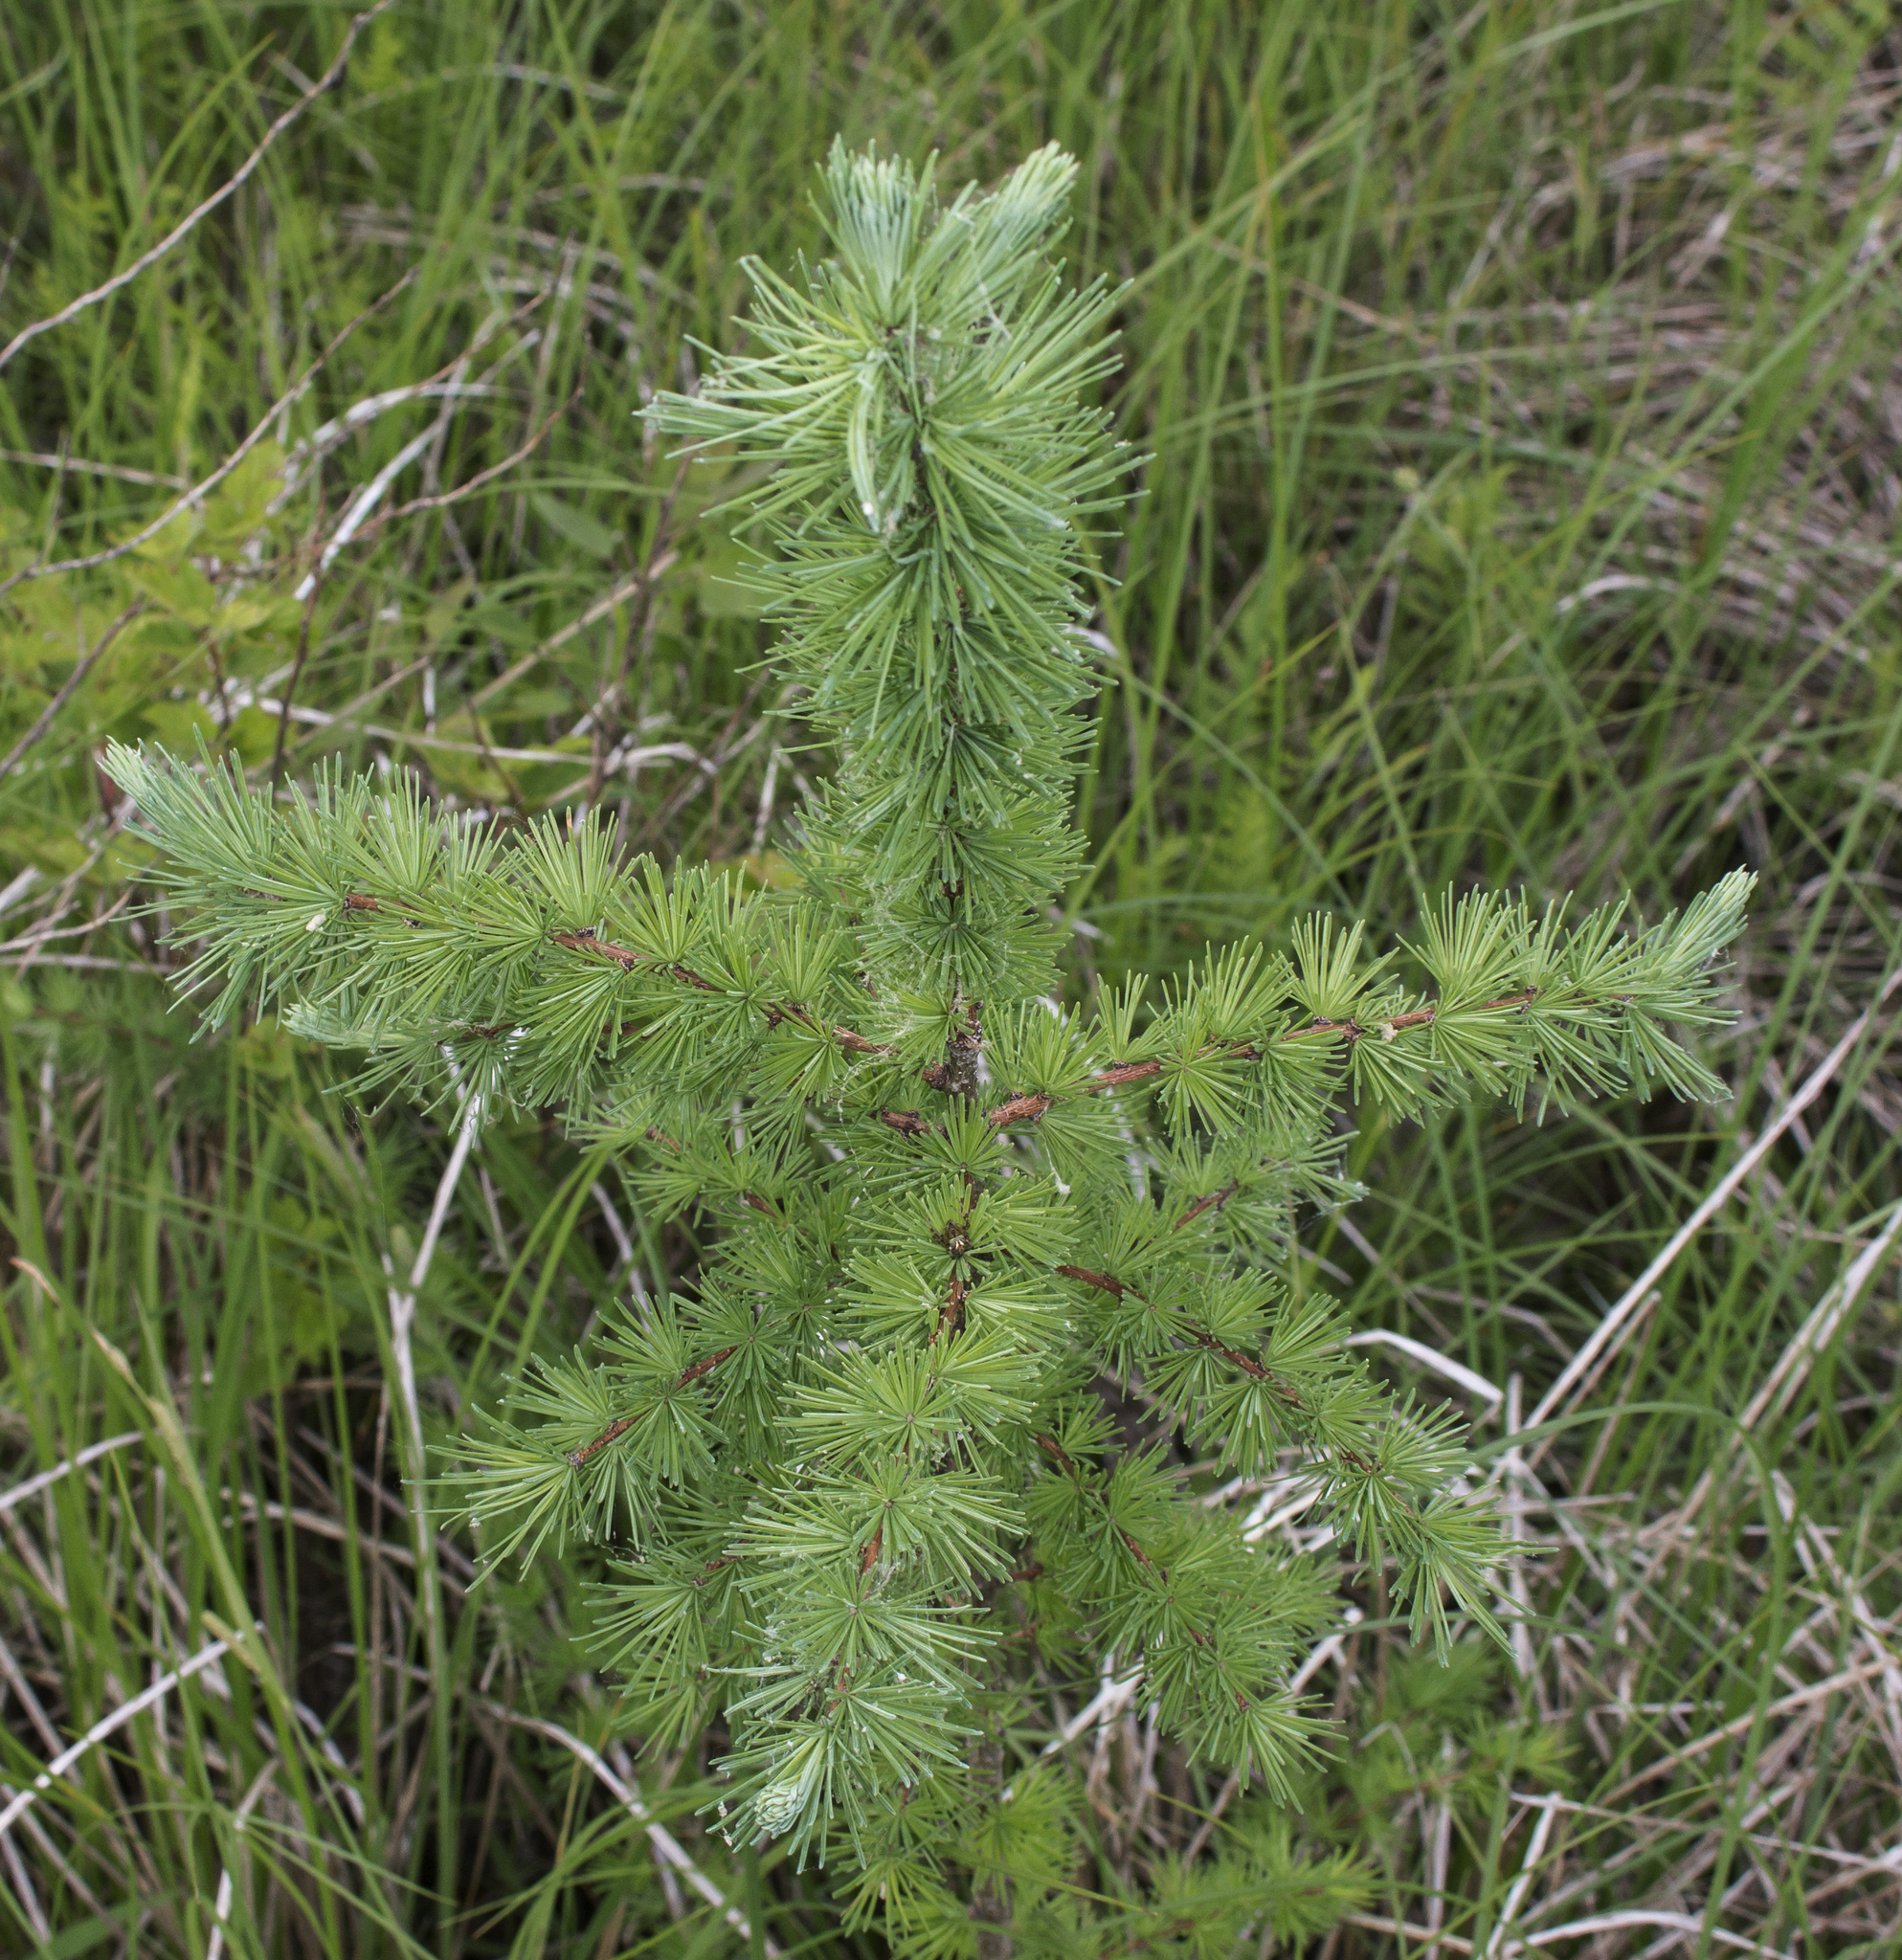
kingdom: Plantae
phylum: Tracheophyta
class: Pinopsida
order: Pinales
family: Pinaceae
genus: Larix
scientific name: Larix laricina
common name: American larch
